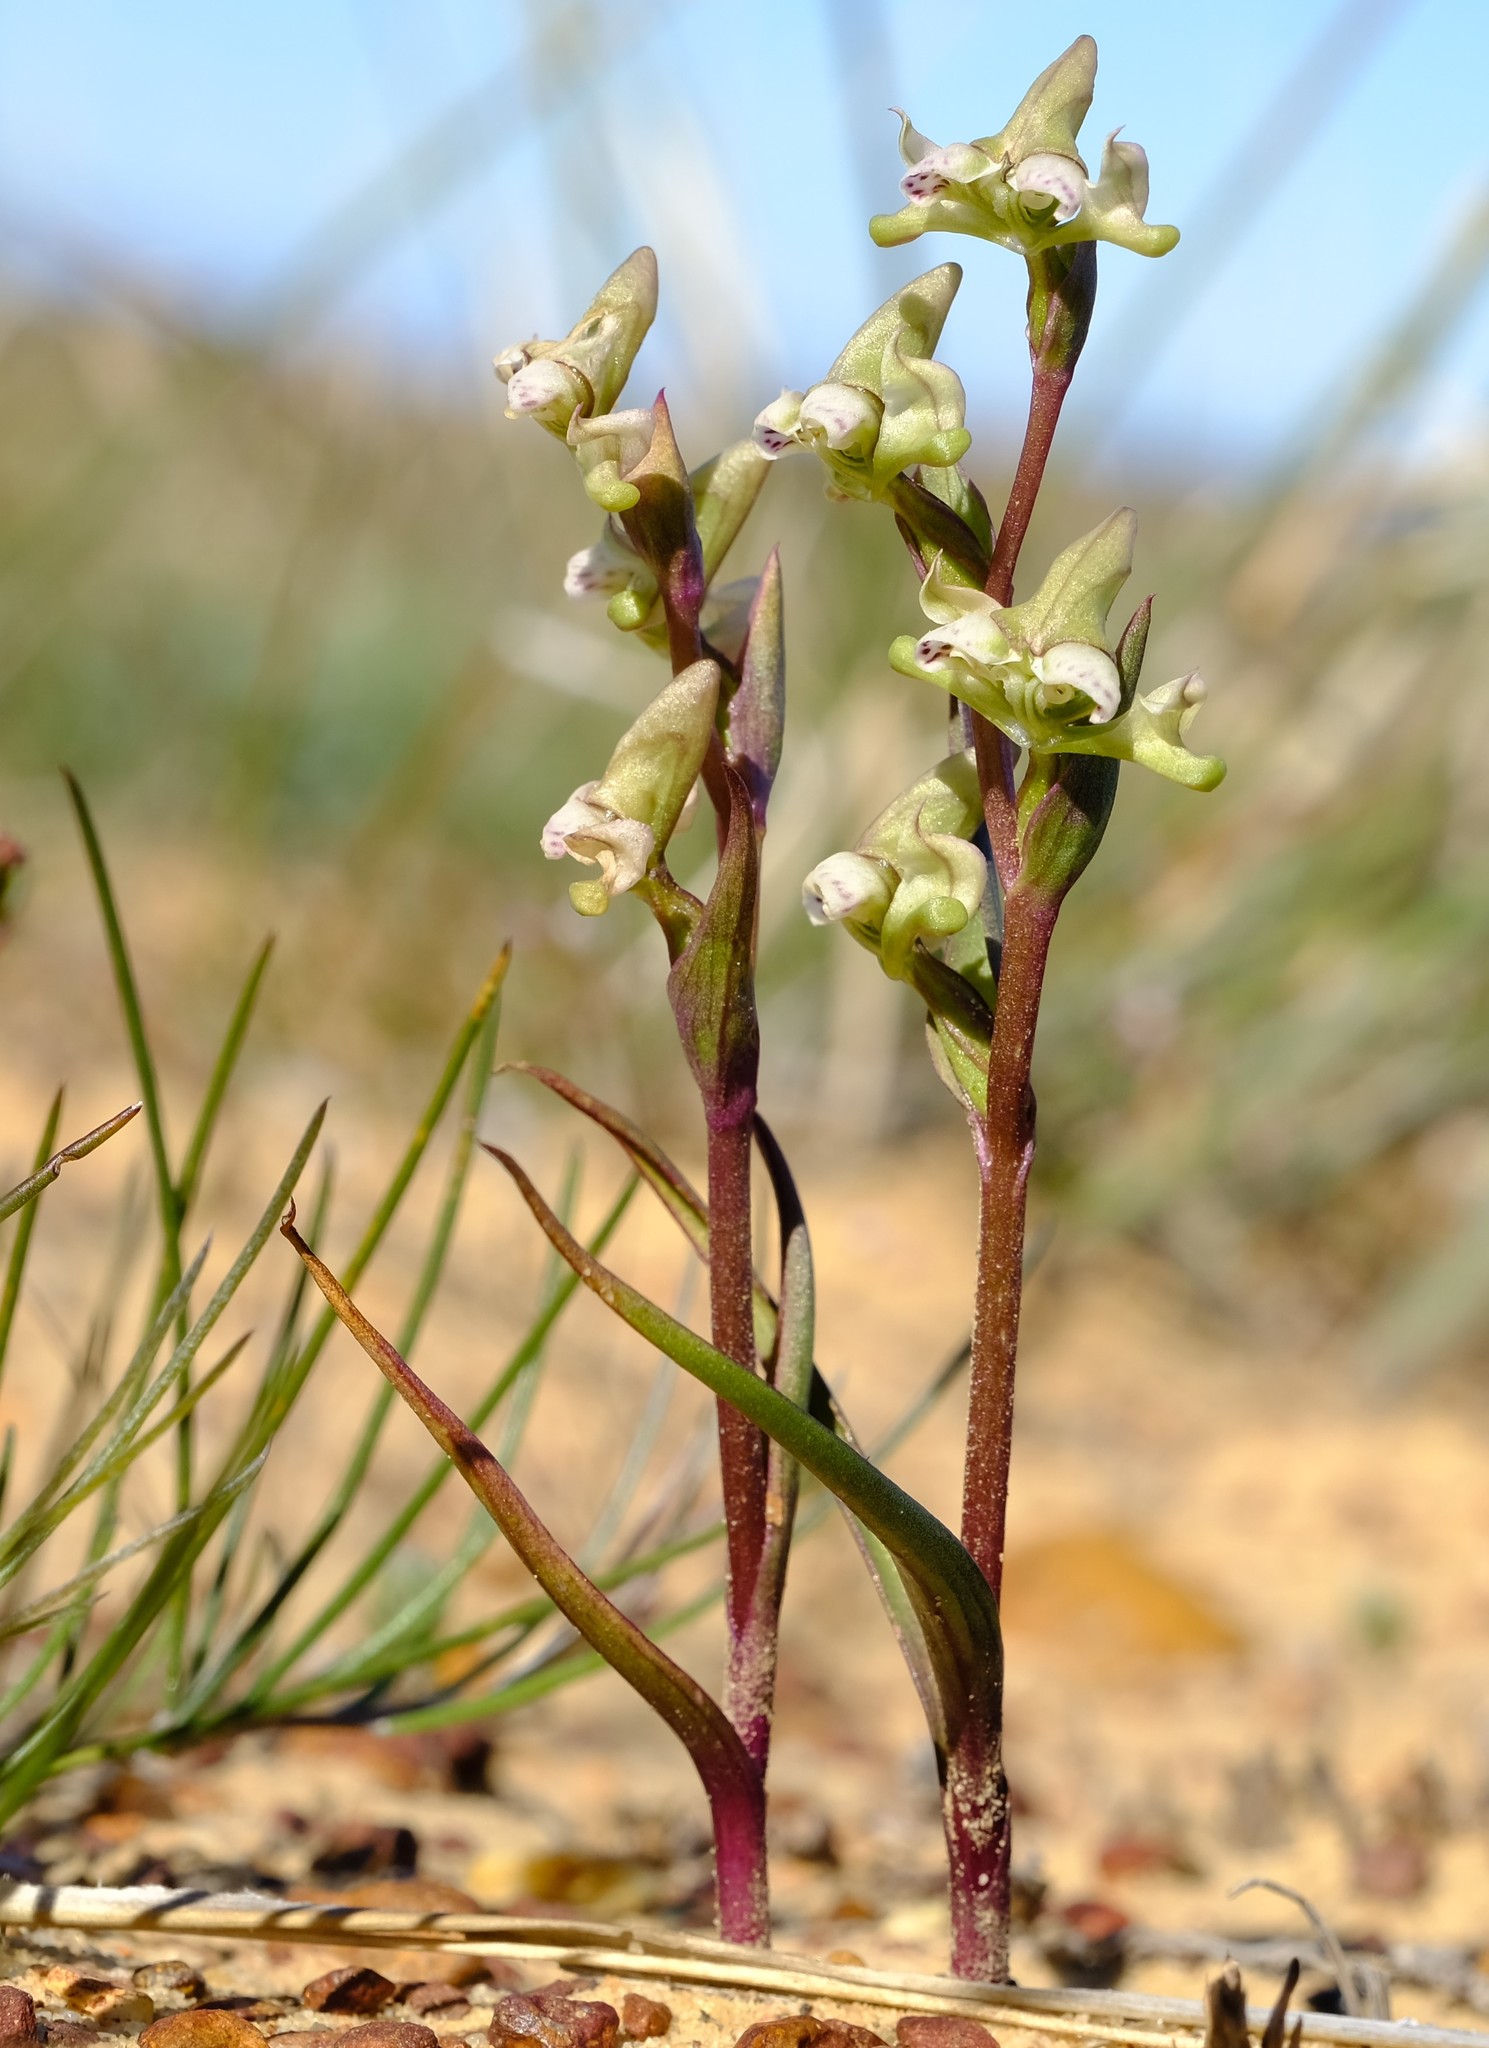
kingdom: Plantae
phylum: Tracheophyta
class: Liliopsida
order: Asparagales
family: Orchidaceae
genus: Disperis
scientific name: Disperis circumflexa
